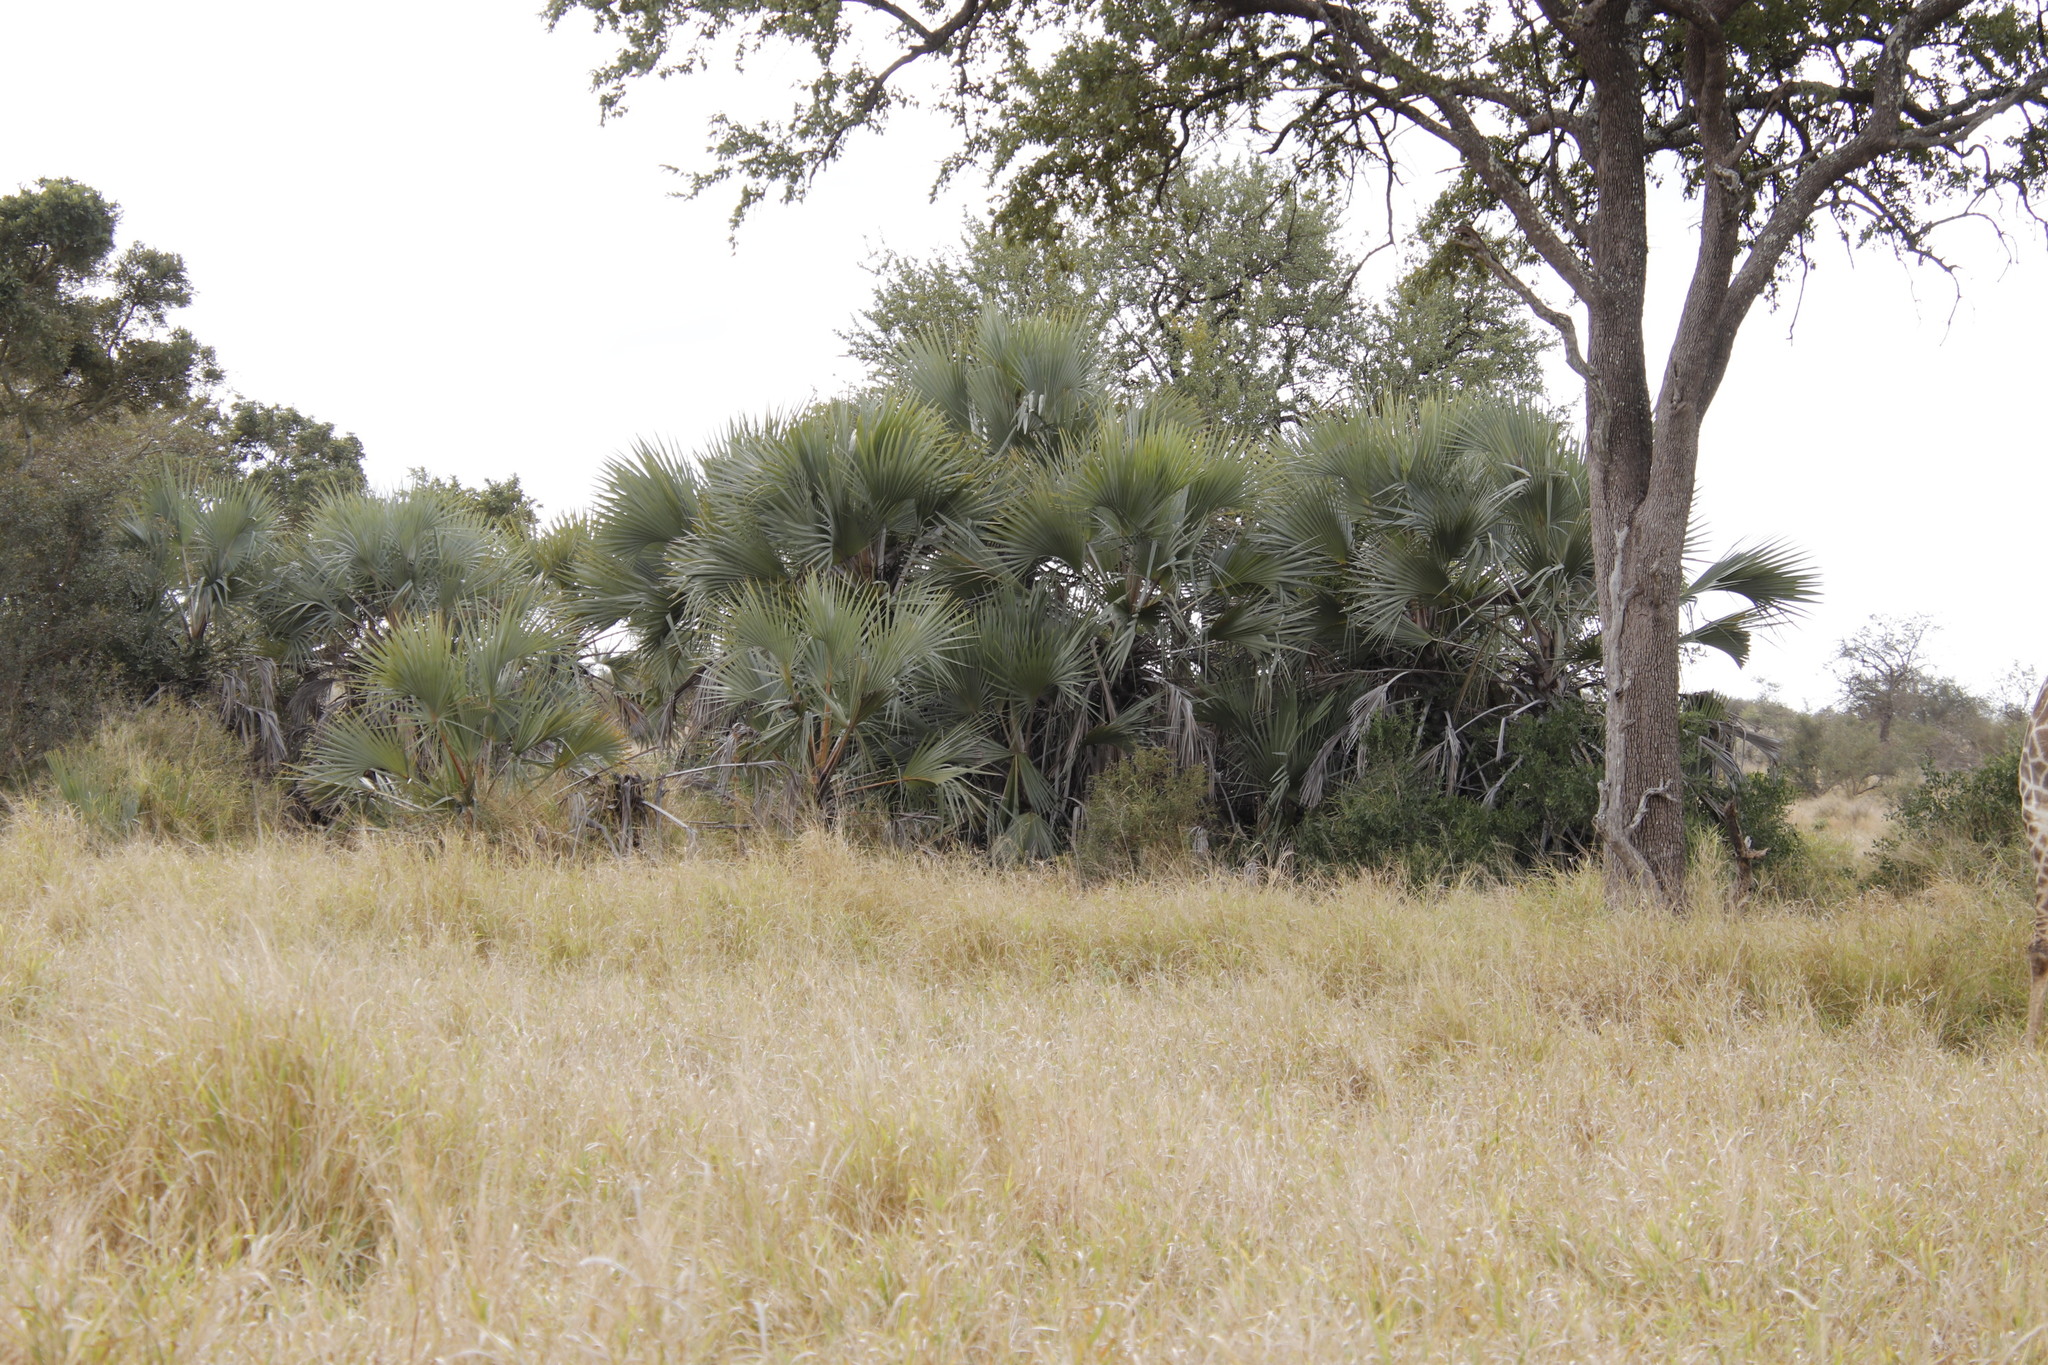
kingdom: Plantae
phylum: Tracheophyta
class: Liliopsida
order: Arecales
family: Arecaceae
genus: Hyphaene
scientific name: Hyphaene coriacea
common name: Ilala palm
